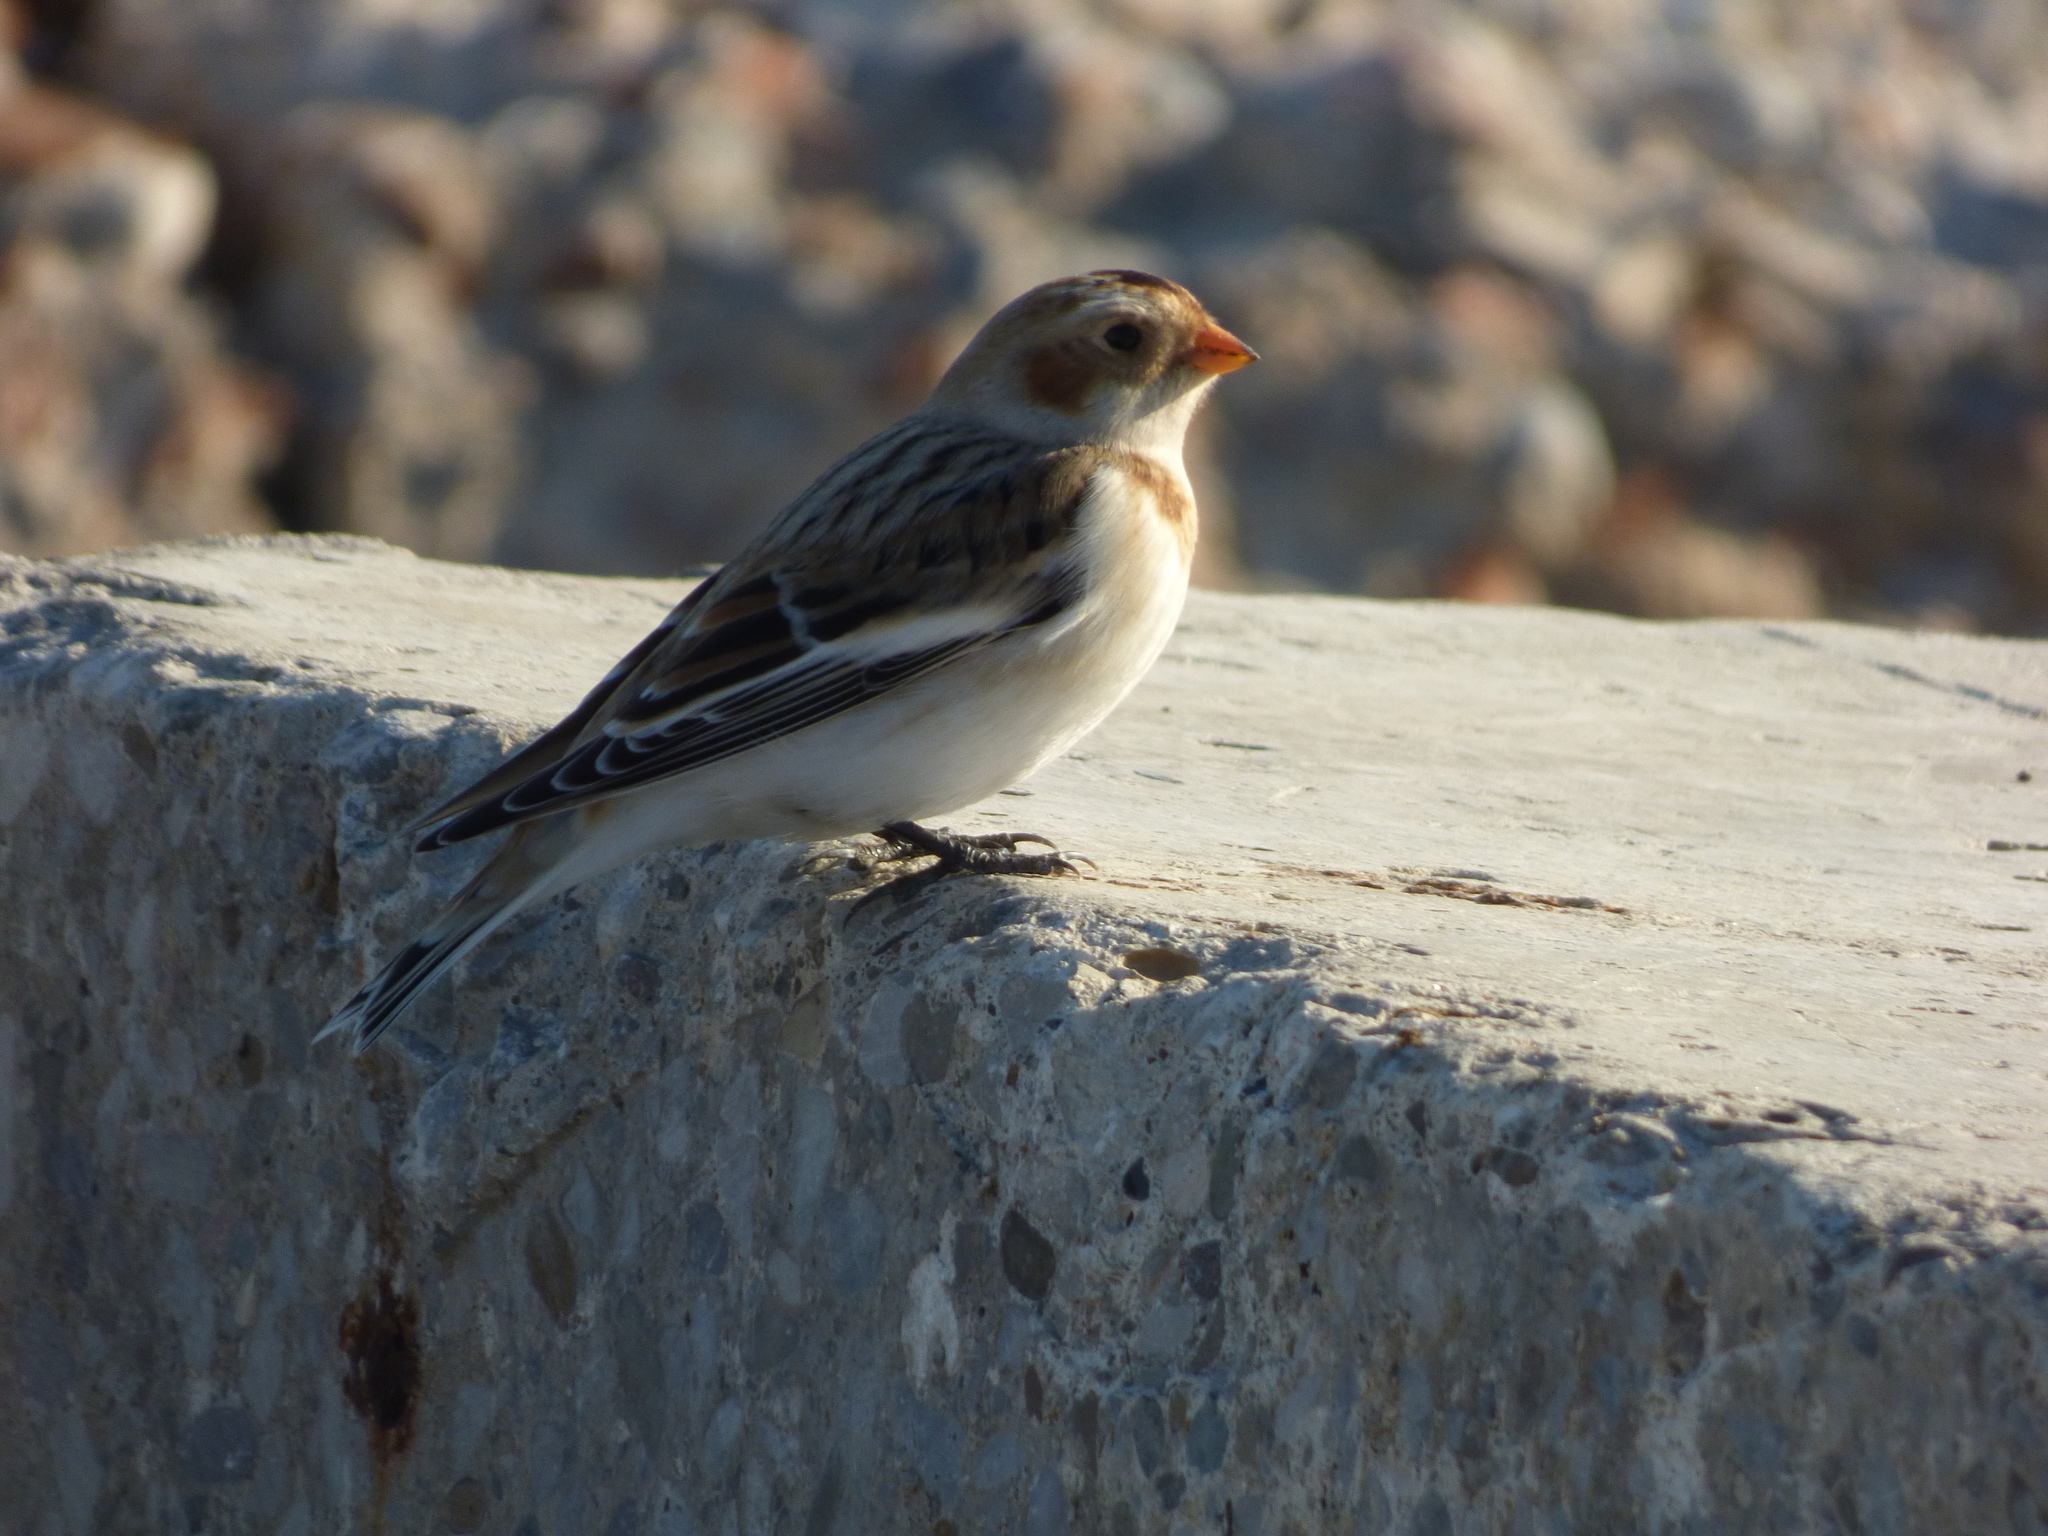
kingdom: Animalia
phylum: Chordata
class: Aves
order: Passeriformes
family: Calcariidae
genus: Plectrophenax
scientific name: Plectrophenax nivalis
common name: Snow bunting
